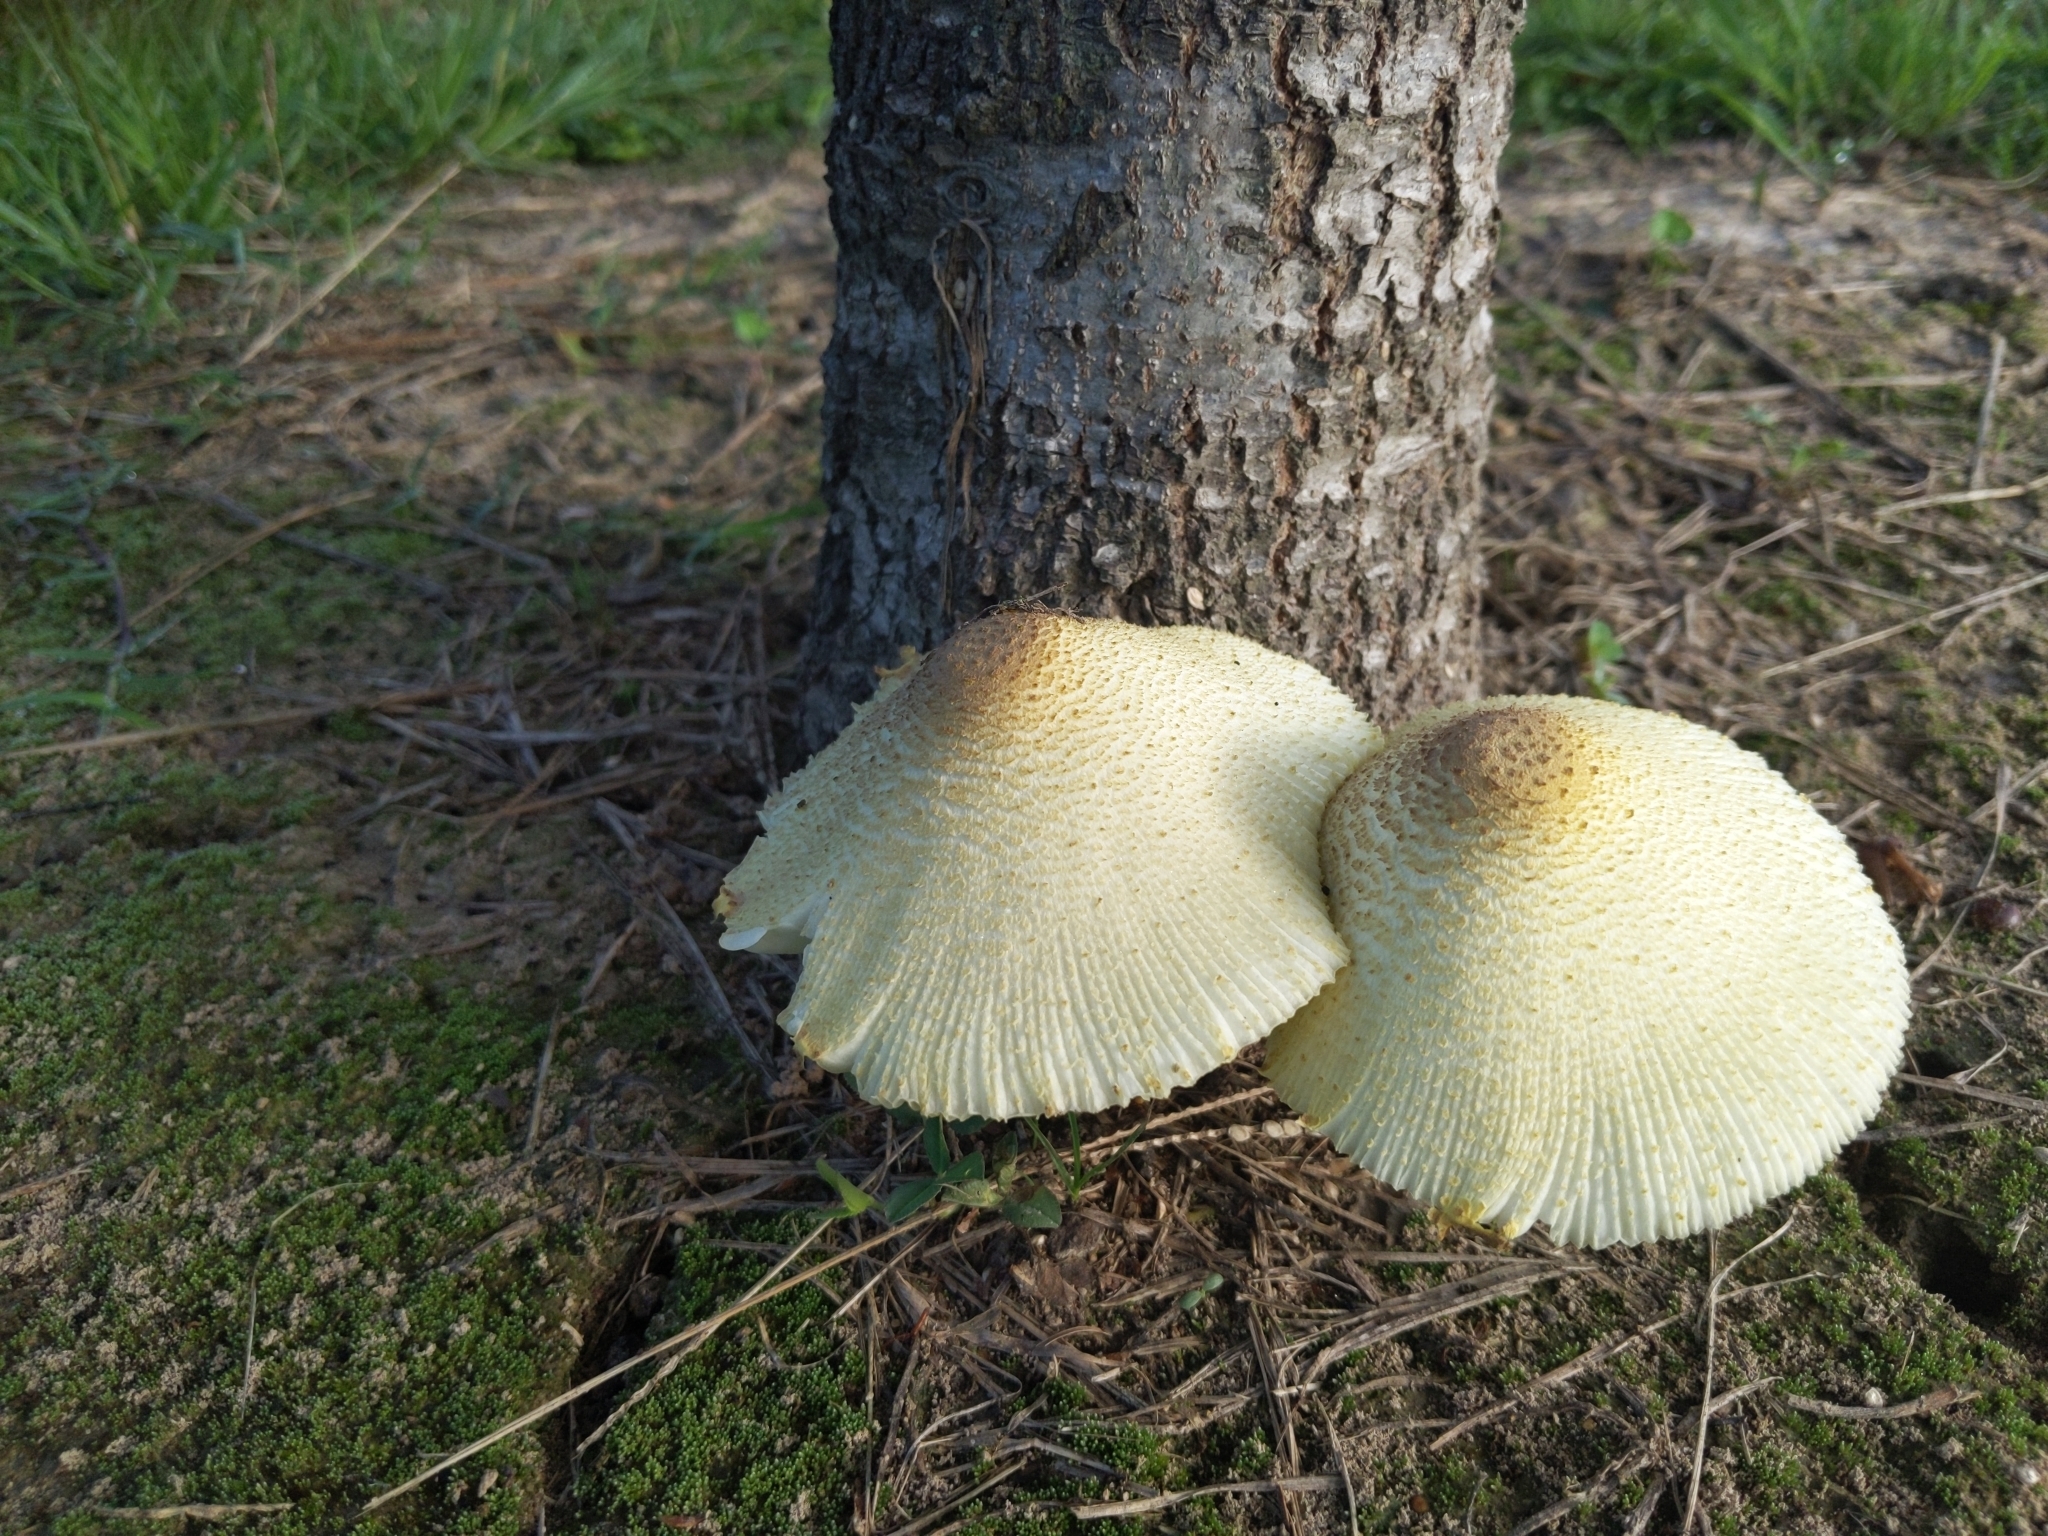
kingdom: Fungi
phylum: Basidiomycota
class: Agaricomycetes
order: Agaricales
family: Agaricaceae
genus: Leucocoprinus
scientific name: Leucocoprinus birnbaumii
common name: Plantpot dapperling
